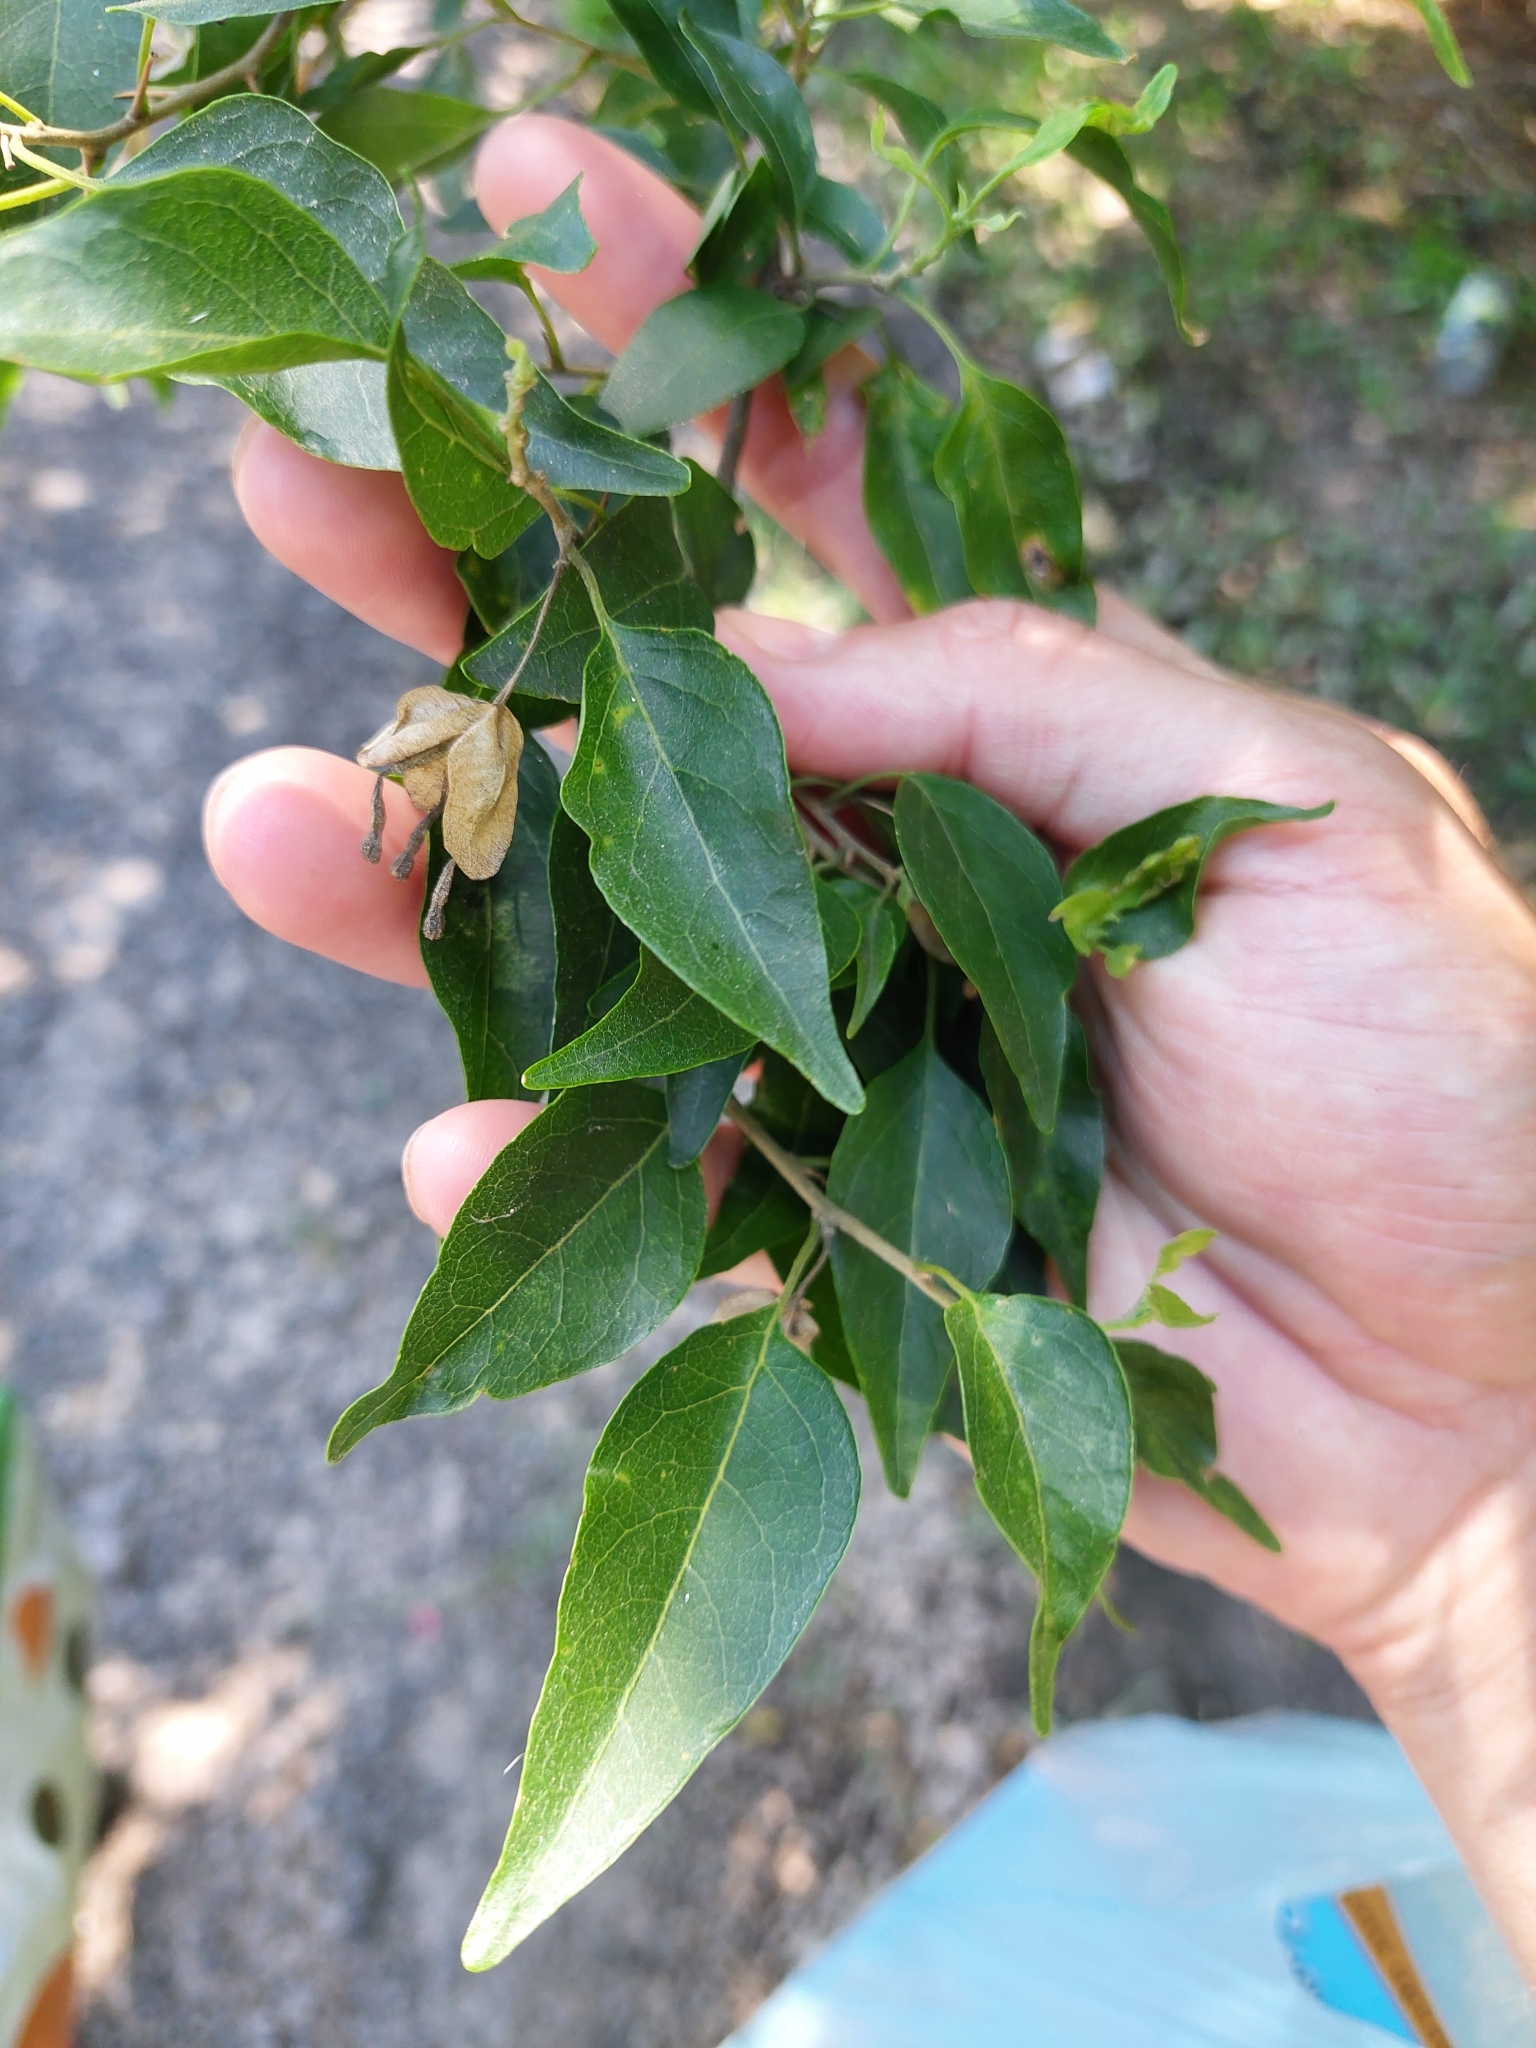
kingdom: Plantae
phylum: Tracheophyta
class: Magnoliopsida
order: Caryophyllales
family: Nyctaginaceae
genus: Bougainvillea
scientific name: Bougainvillea stipitata
